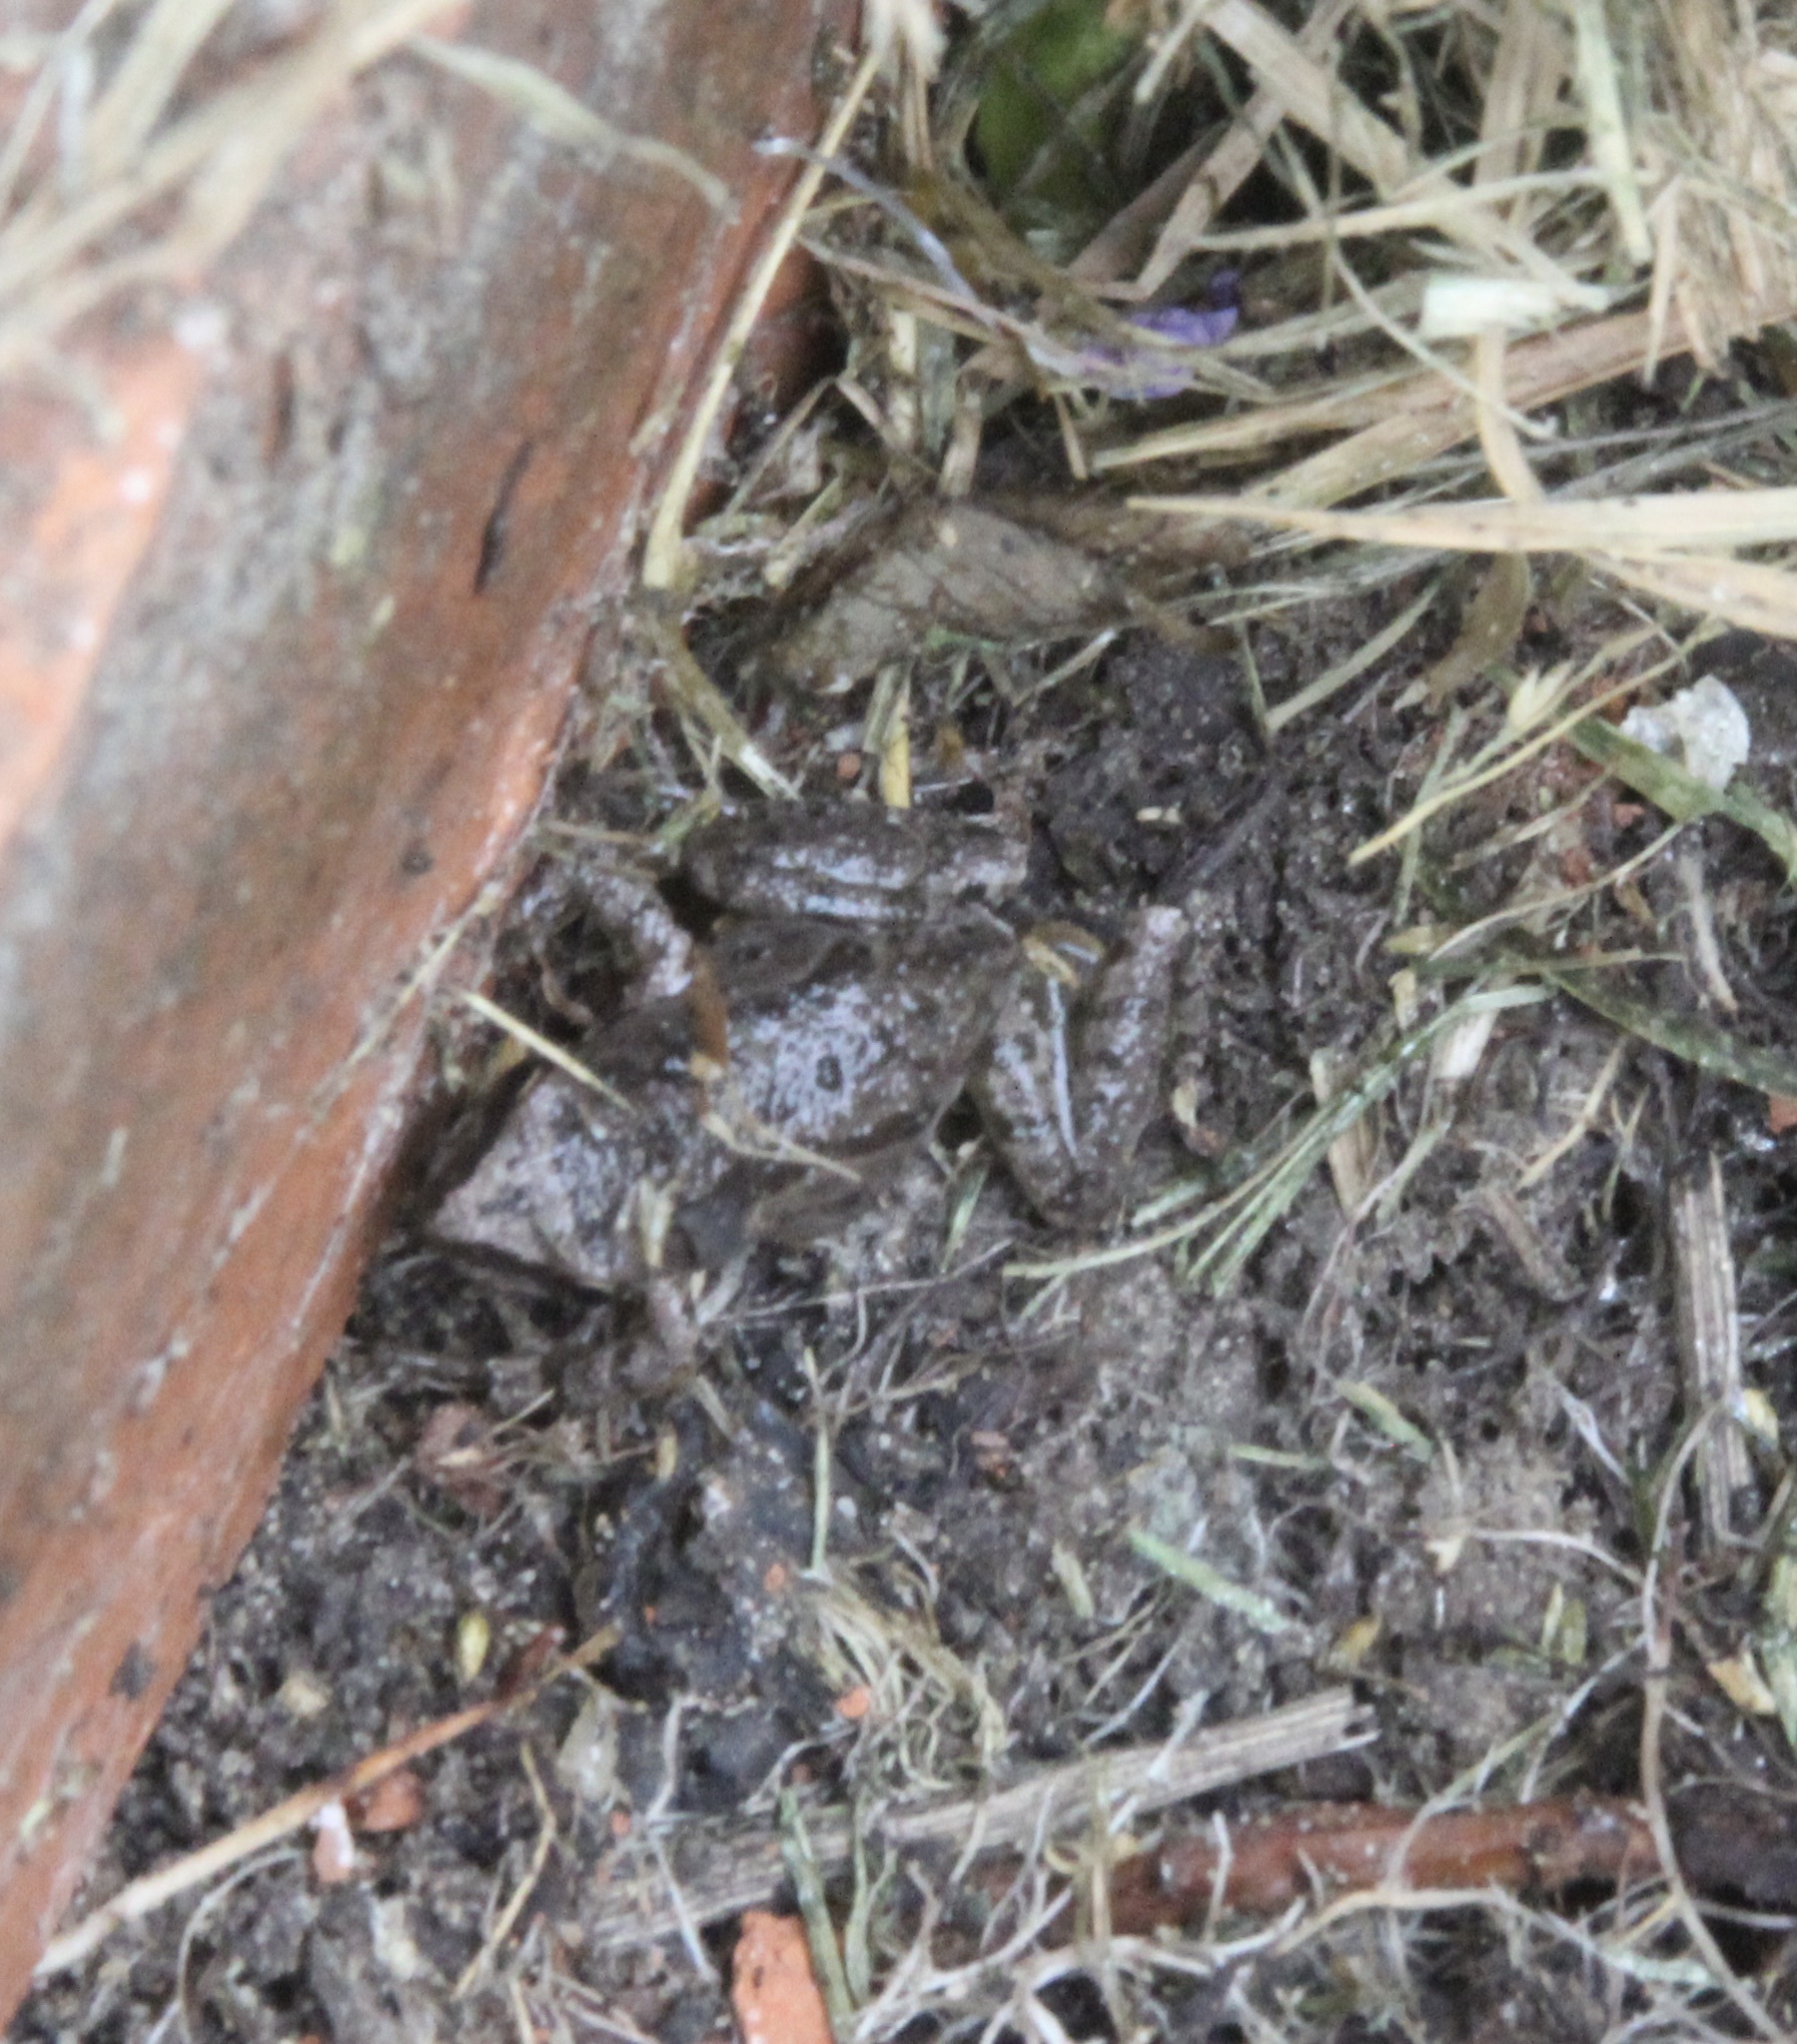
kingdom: Animalia
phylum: Chordata
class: Amphibia
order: Anura
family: Hylidae
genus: Pseudacris
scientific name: Pseudacris regilla
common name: Pacific chorus frog
